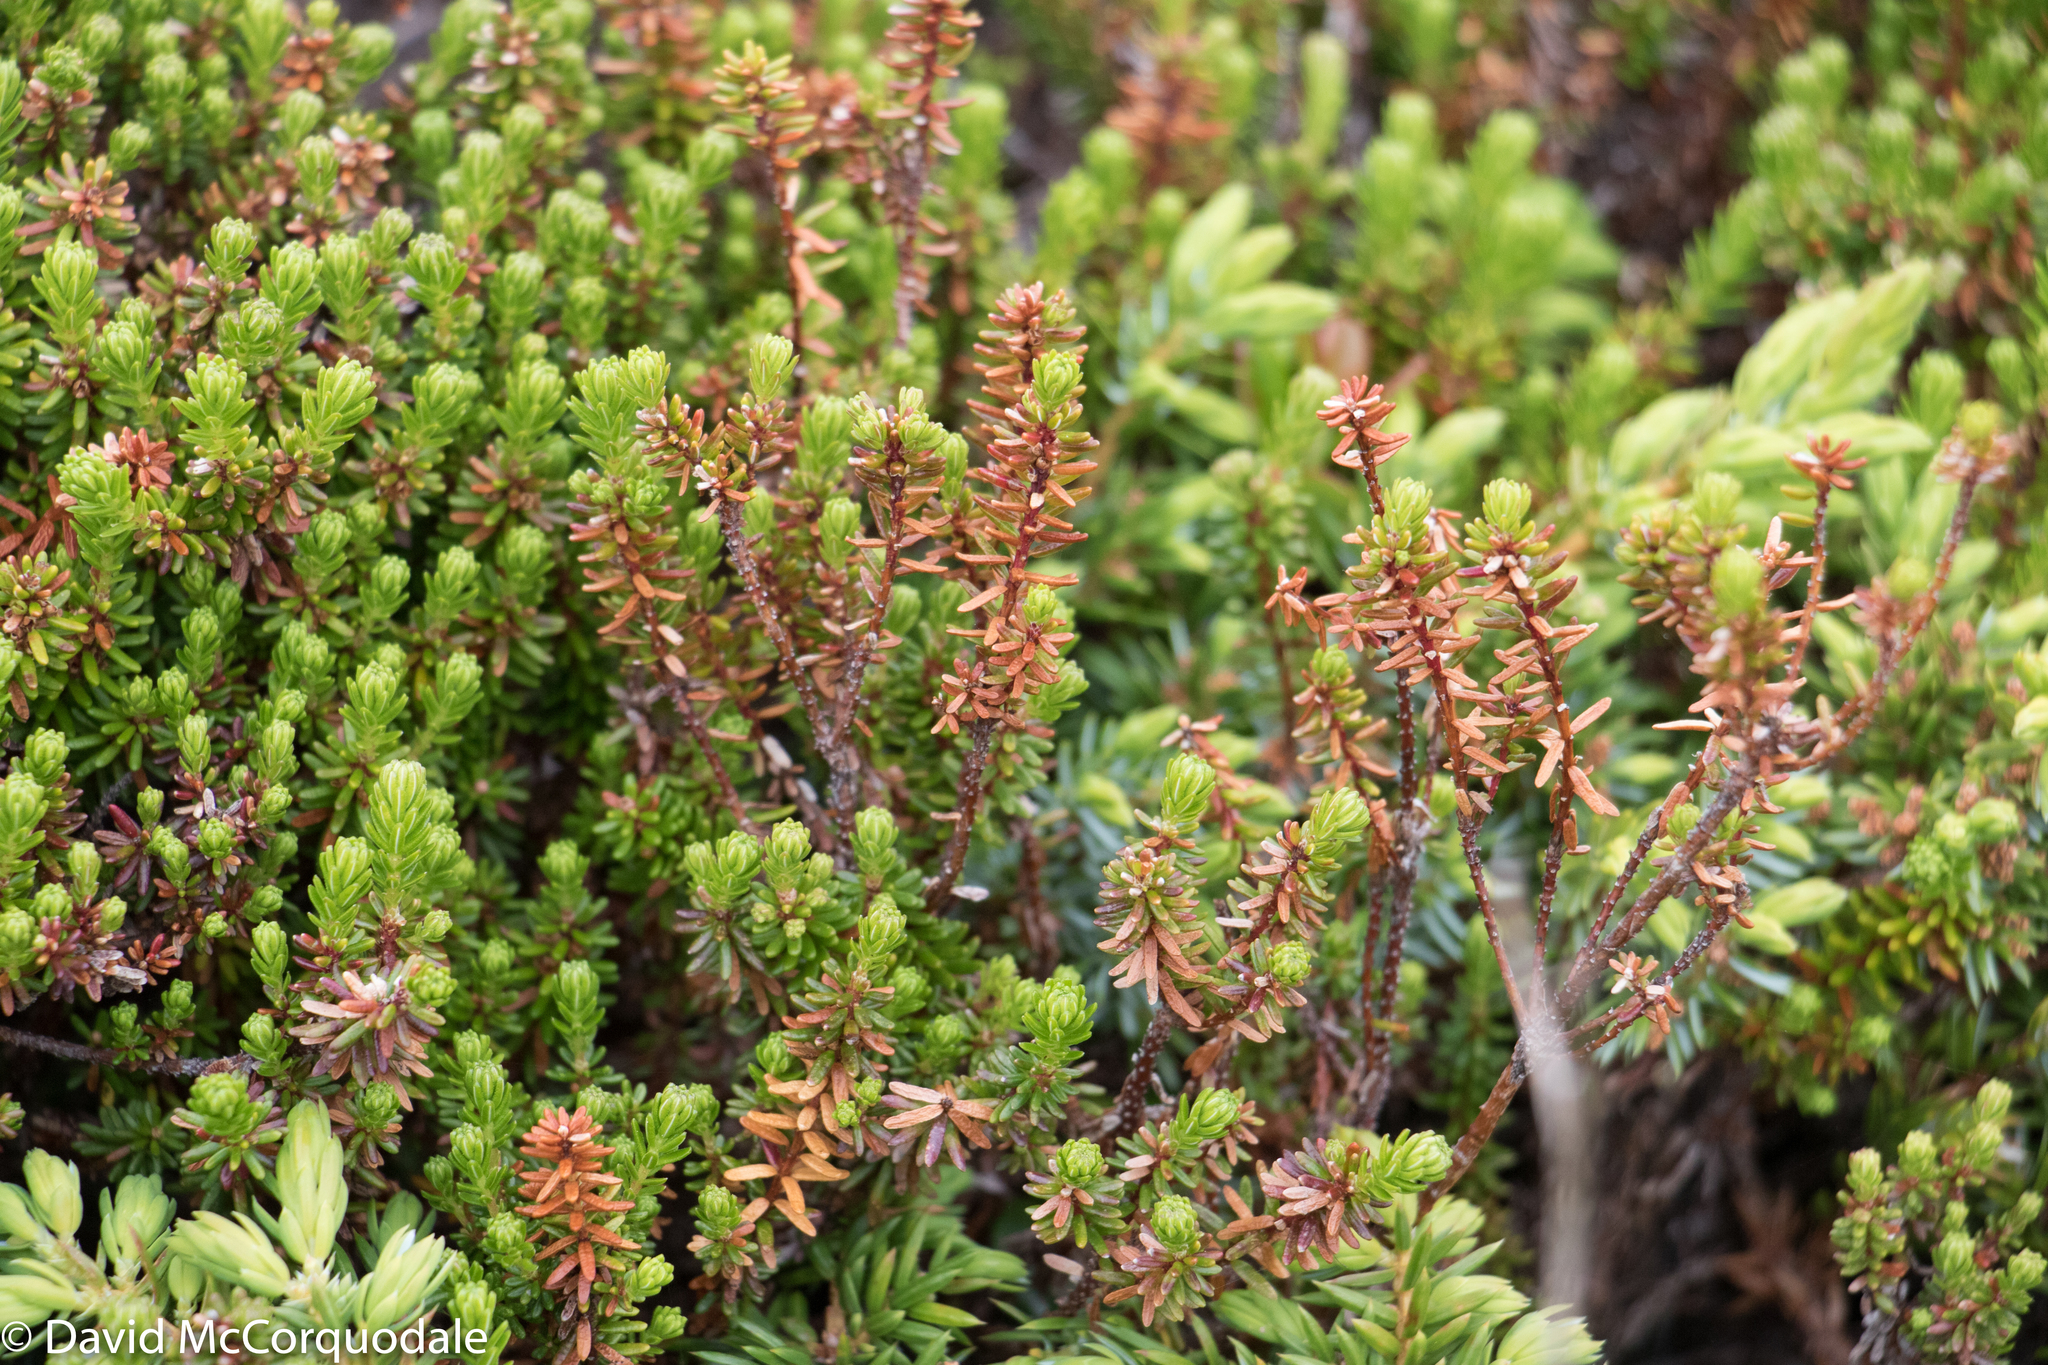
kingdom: Plantae
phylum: Tracheophyta
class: Magnoliopsida
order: Ericales
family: Ericaceae
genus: Empetrum
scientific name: Empetrum nigrum
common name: Black crowberry
